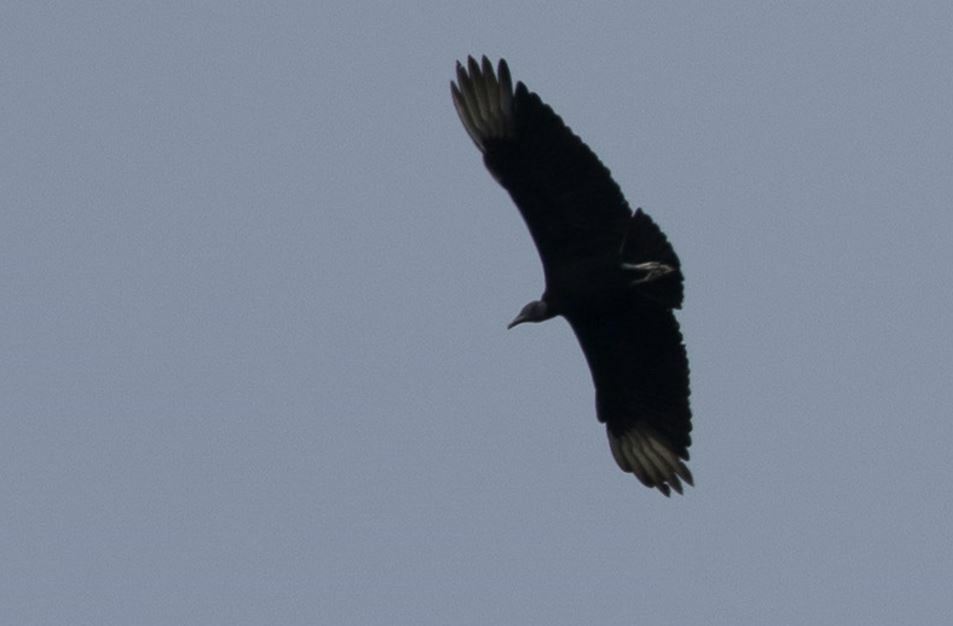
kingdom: Animalia
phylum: Chordata
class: Aves
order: Accipitriformes
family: Cathartidae
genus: Coragyps
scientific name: Coragyps atratus
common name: Black vulture
